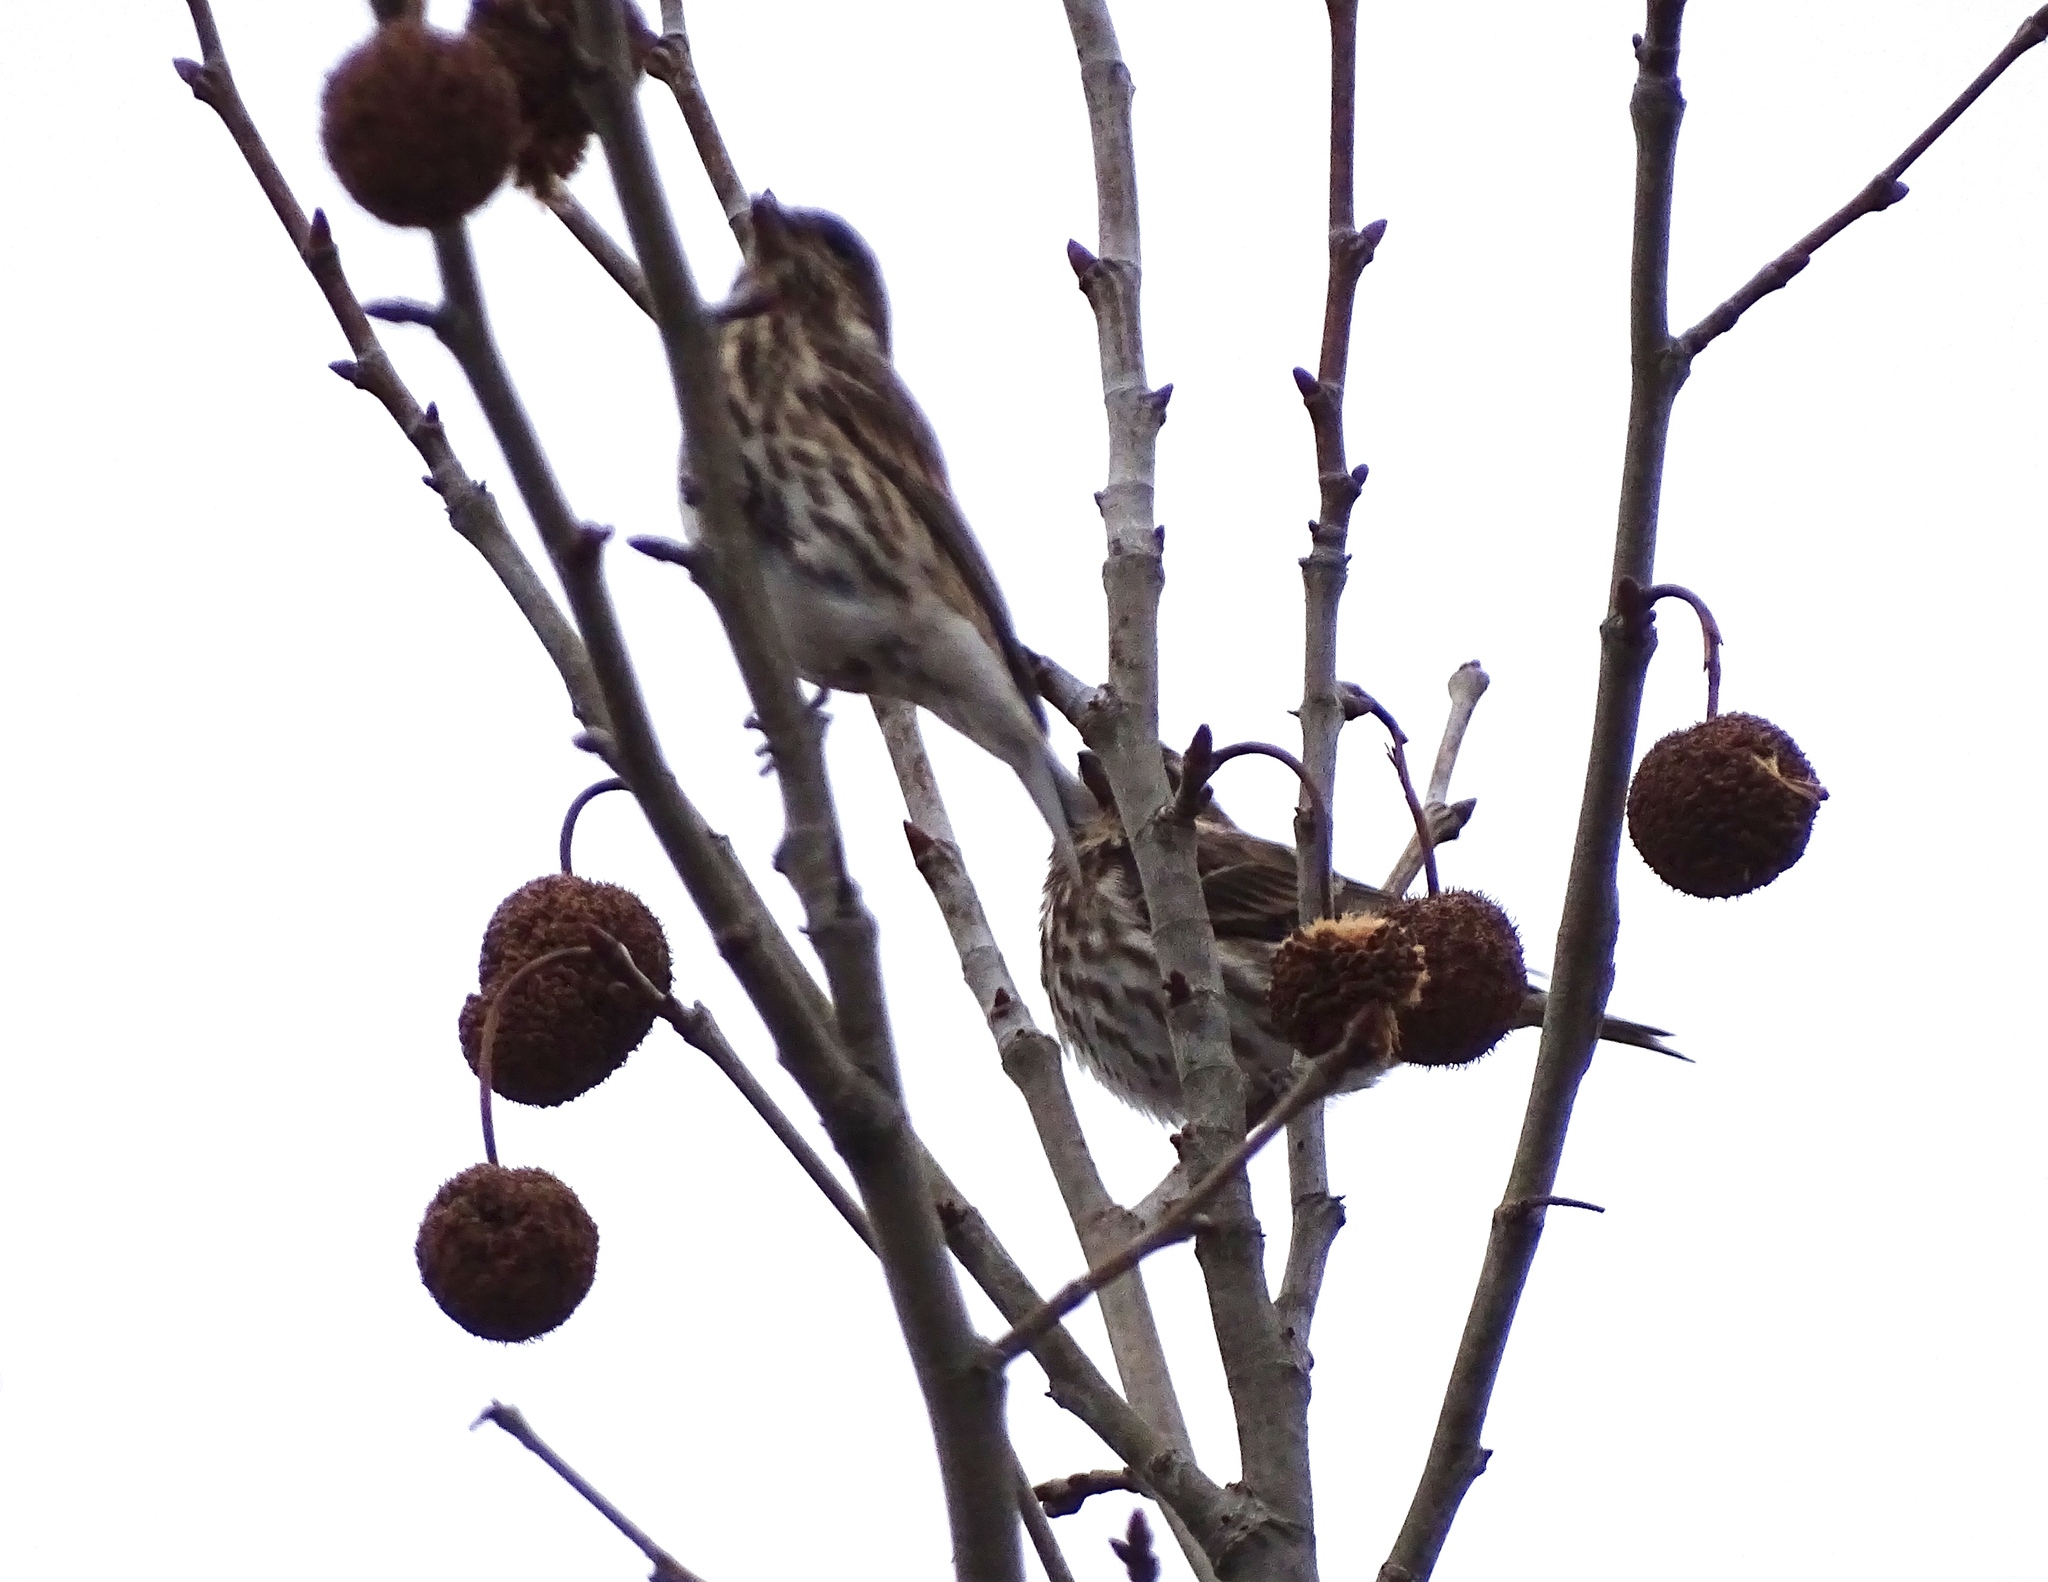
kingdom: Animalia
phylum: Chordata
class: Aves
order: Passeriformes
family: Fringillidae
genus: Haemorhous
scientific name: Haemorhous purpureus
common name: Purple finch
